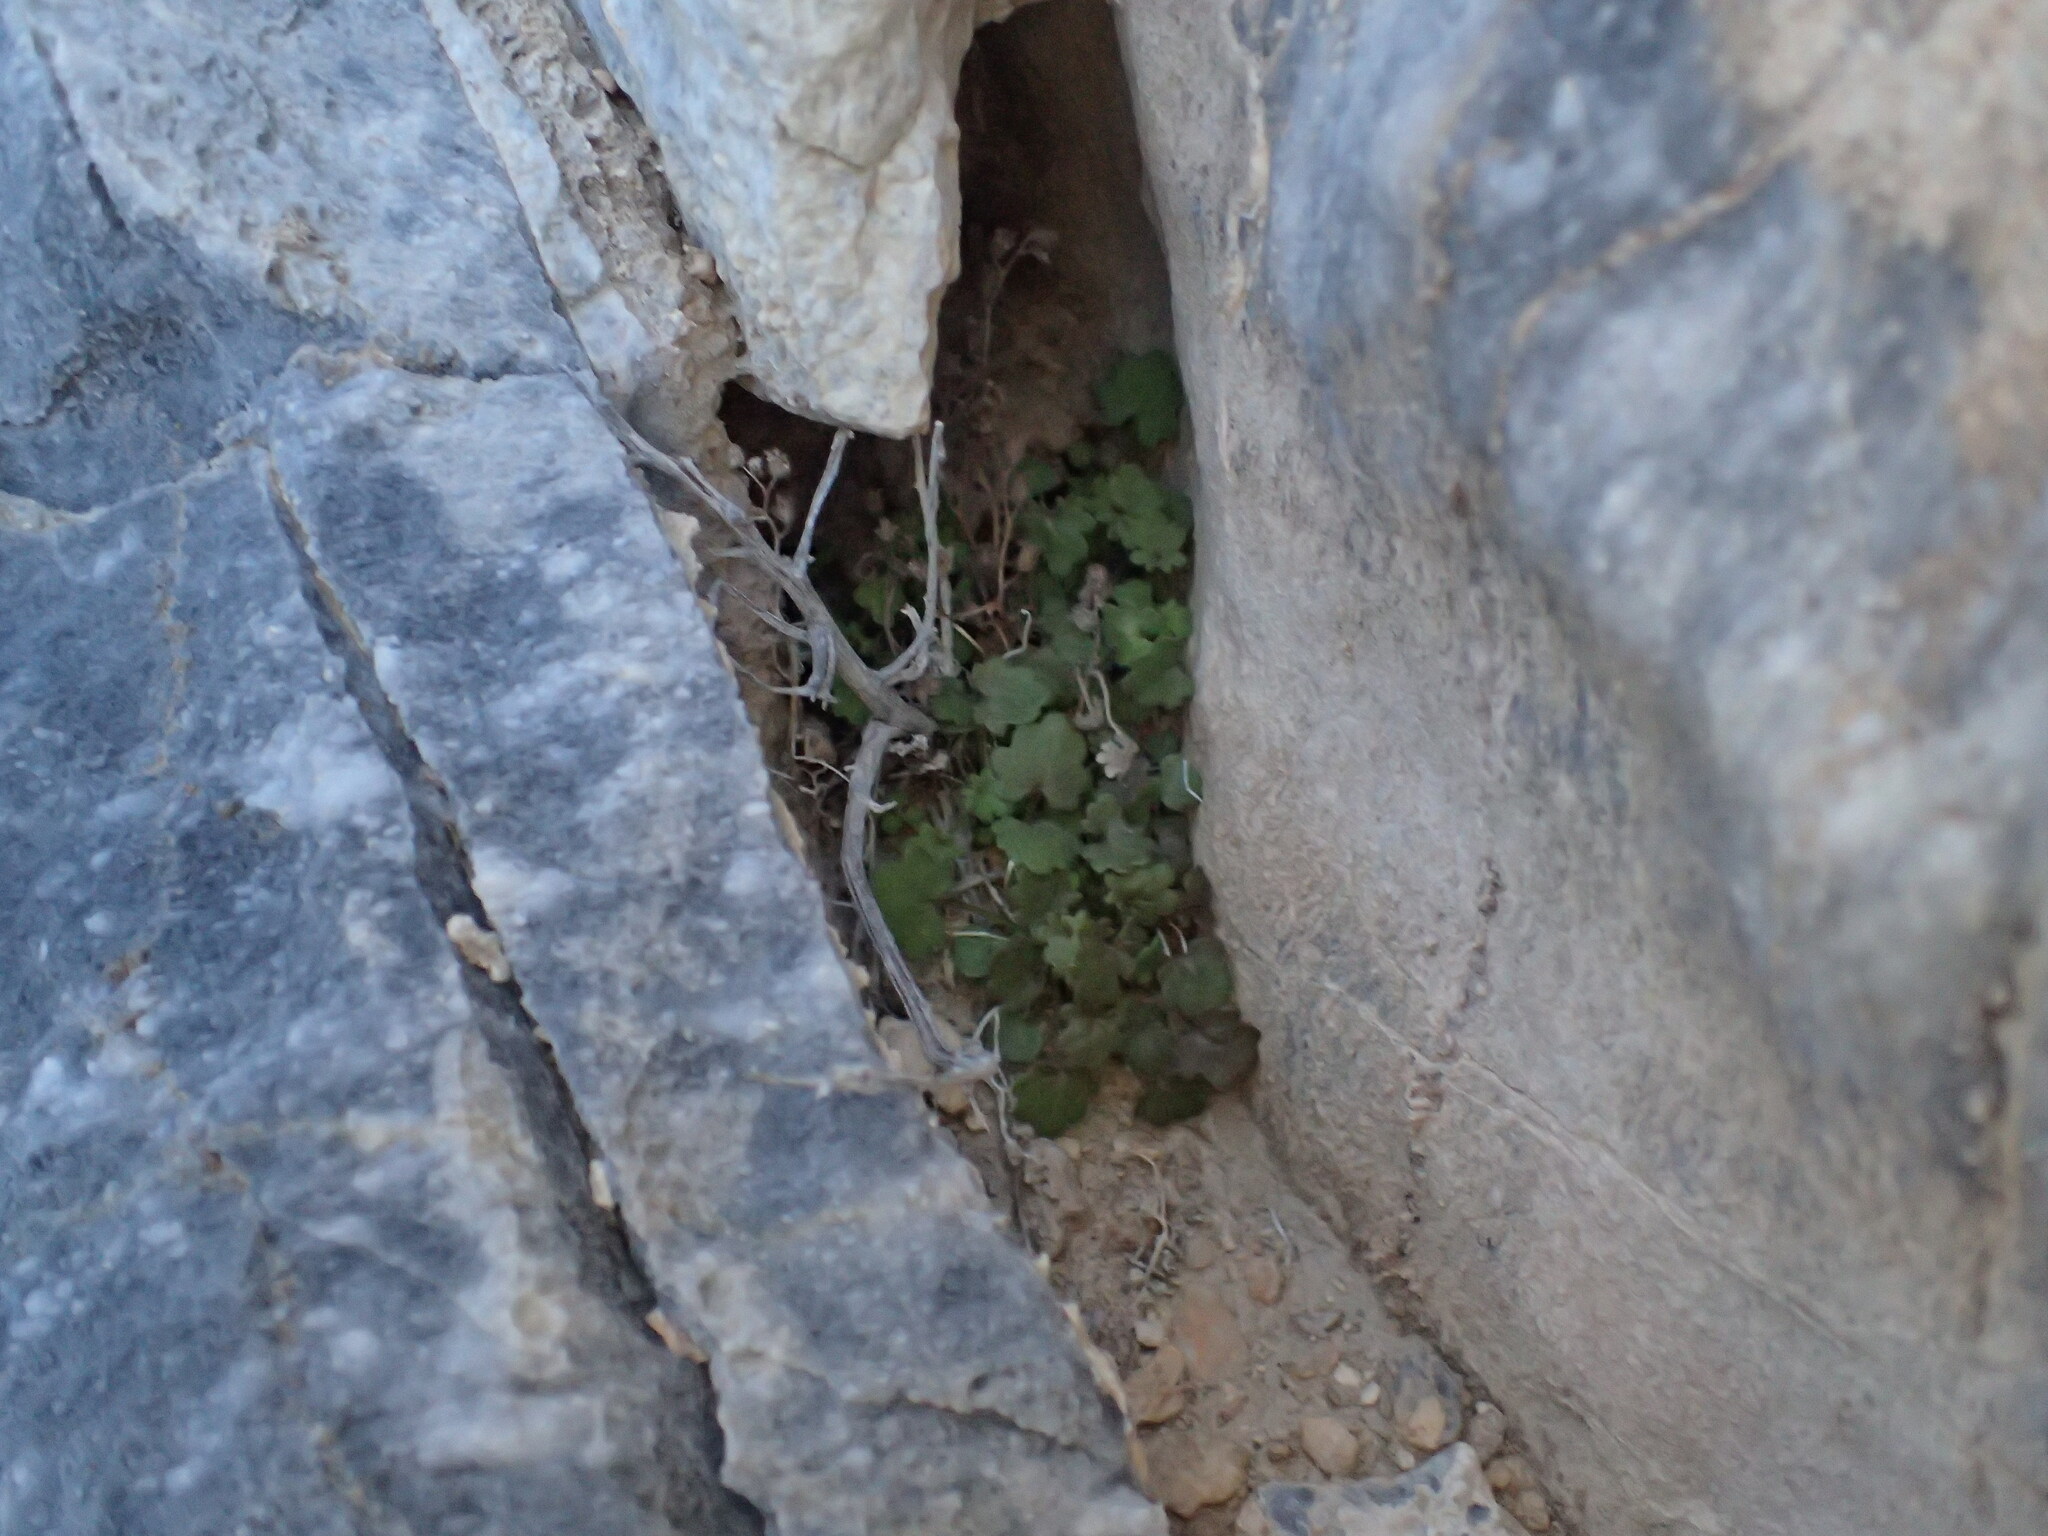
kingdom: Plantae
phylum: Tracheophyta
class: Magnoliopsida
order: Boraginales
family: Hydrophyllaceae
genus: Phacelia
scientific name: Phacelia rotundifolia
